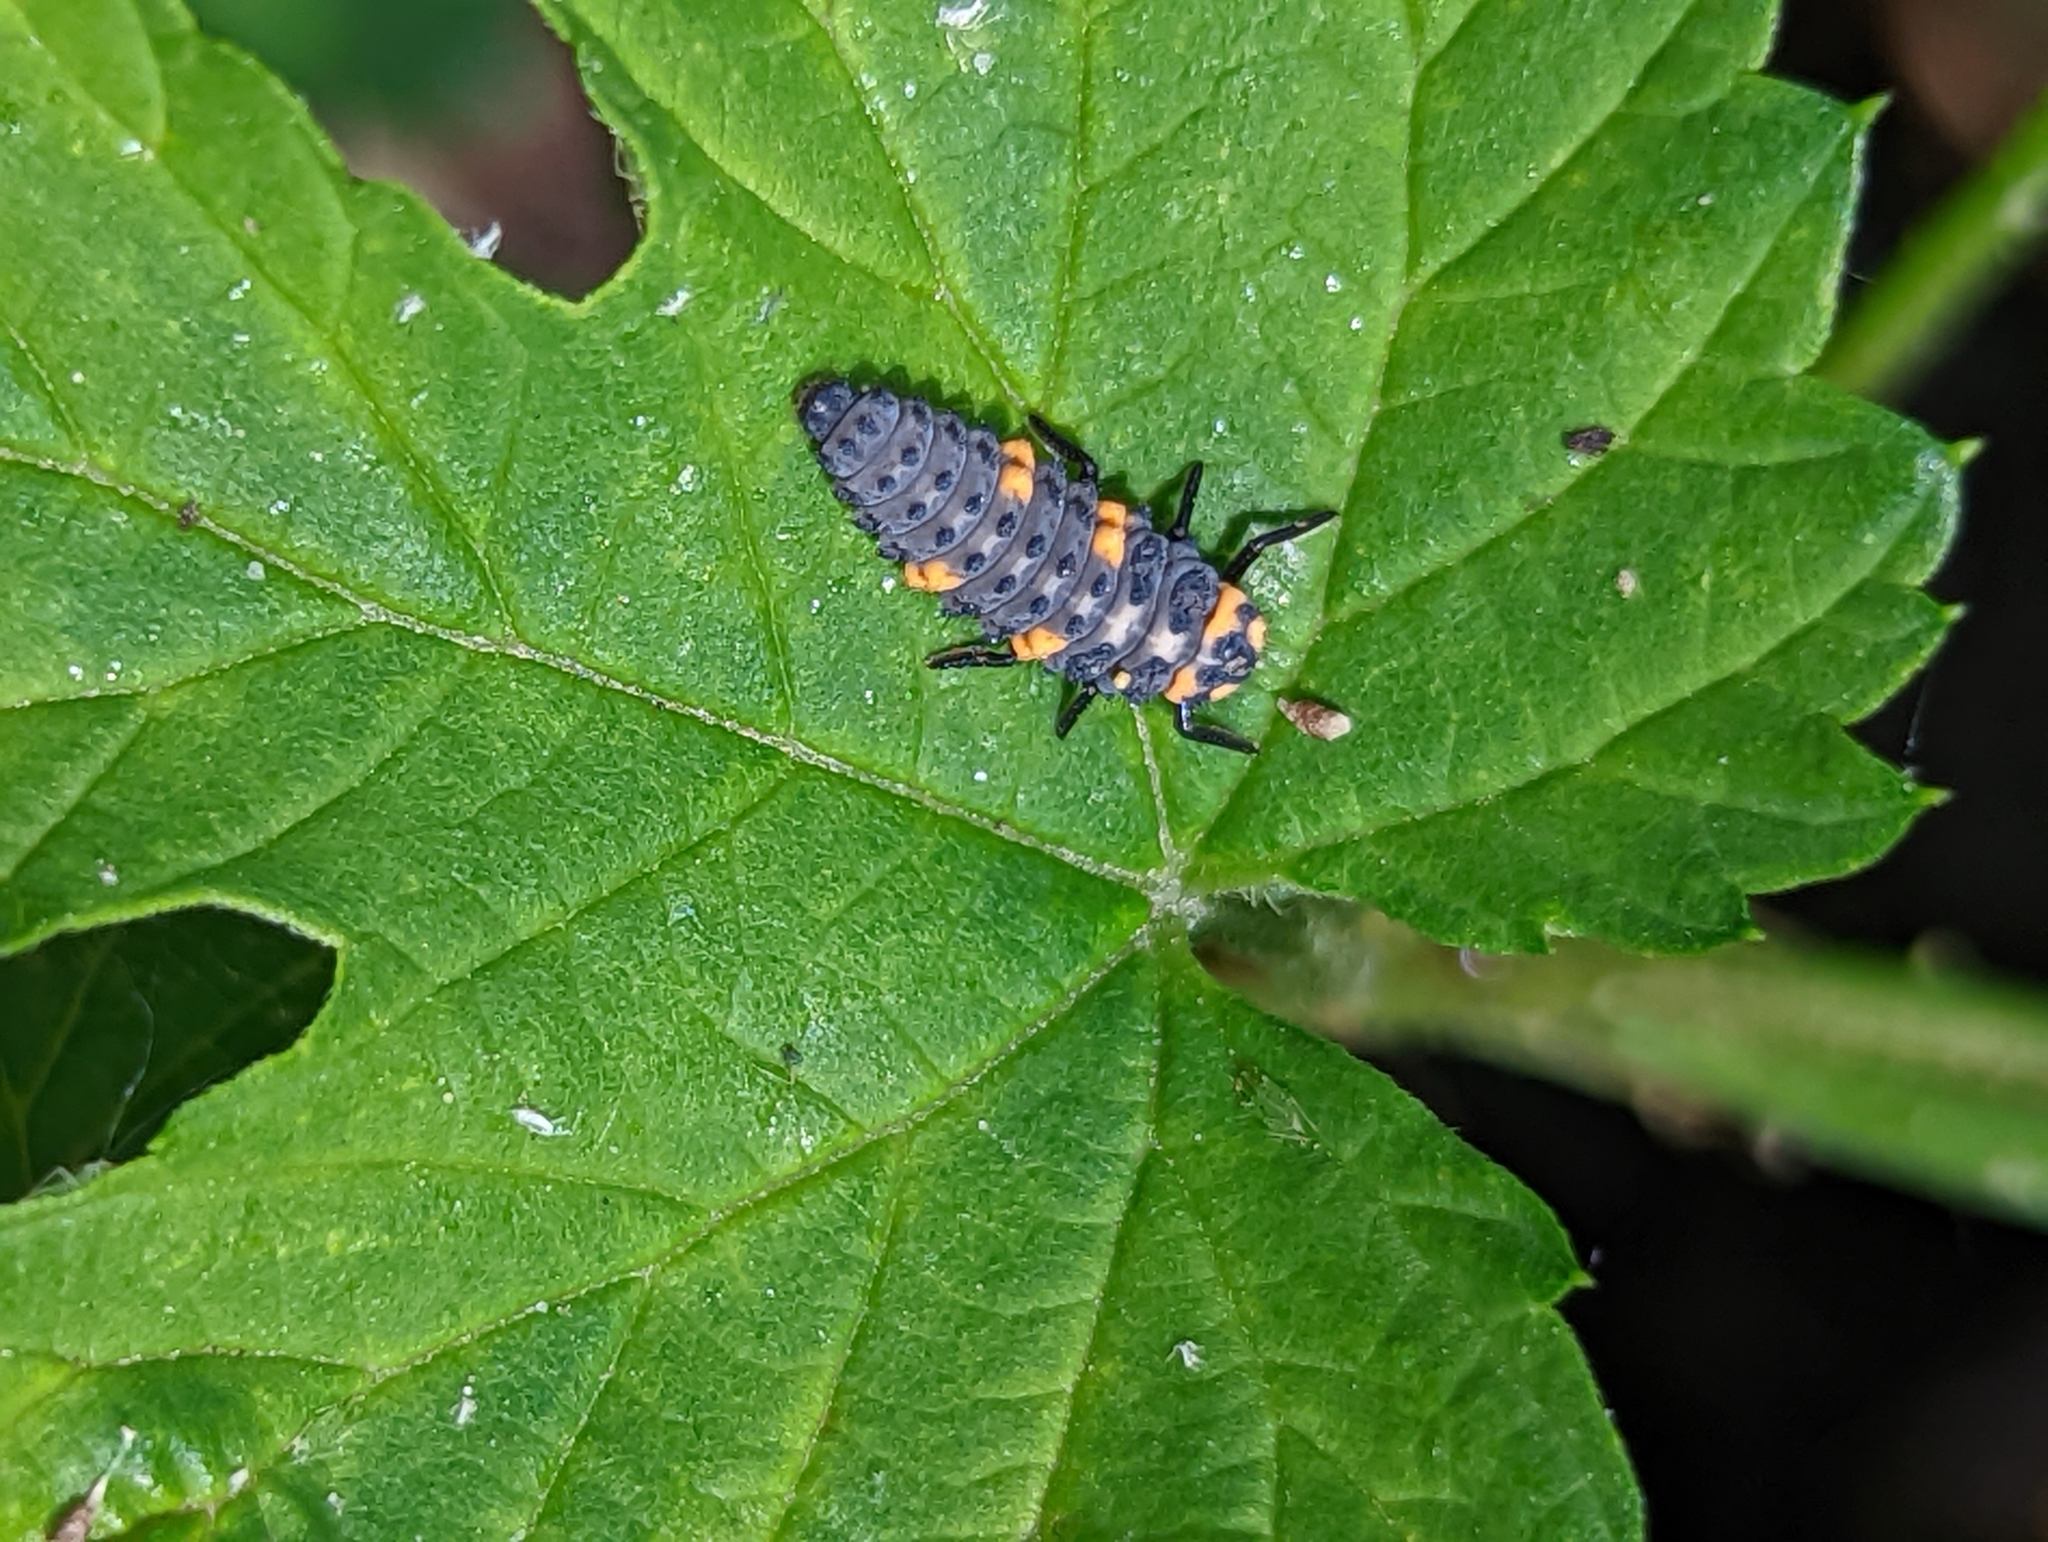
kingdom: Animalia
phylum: Arthropoda
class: Insecta
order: Coleoptera
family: Coccinellidae
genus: Coccinella
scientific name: Coccinella septempunctata
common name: Sevenspotted lady beetle
